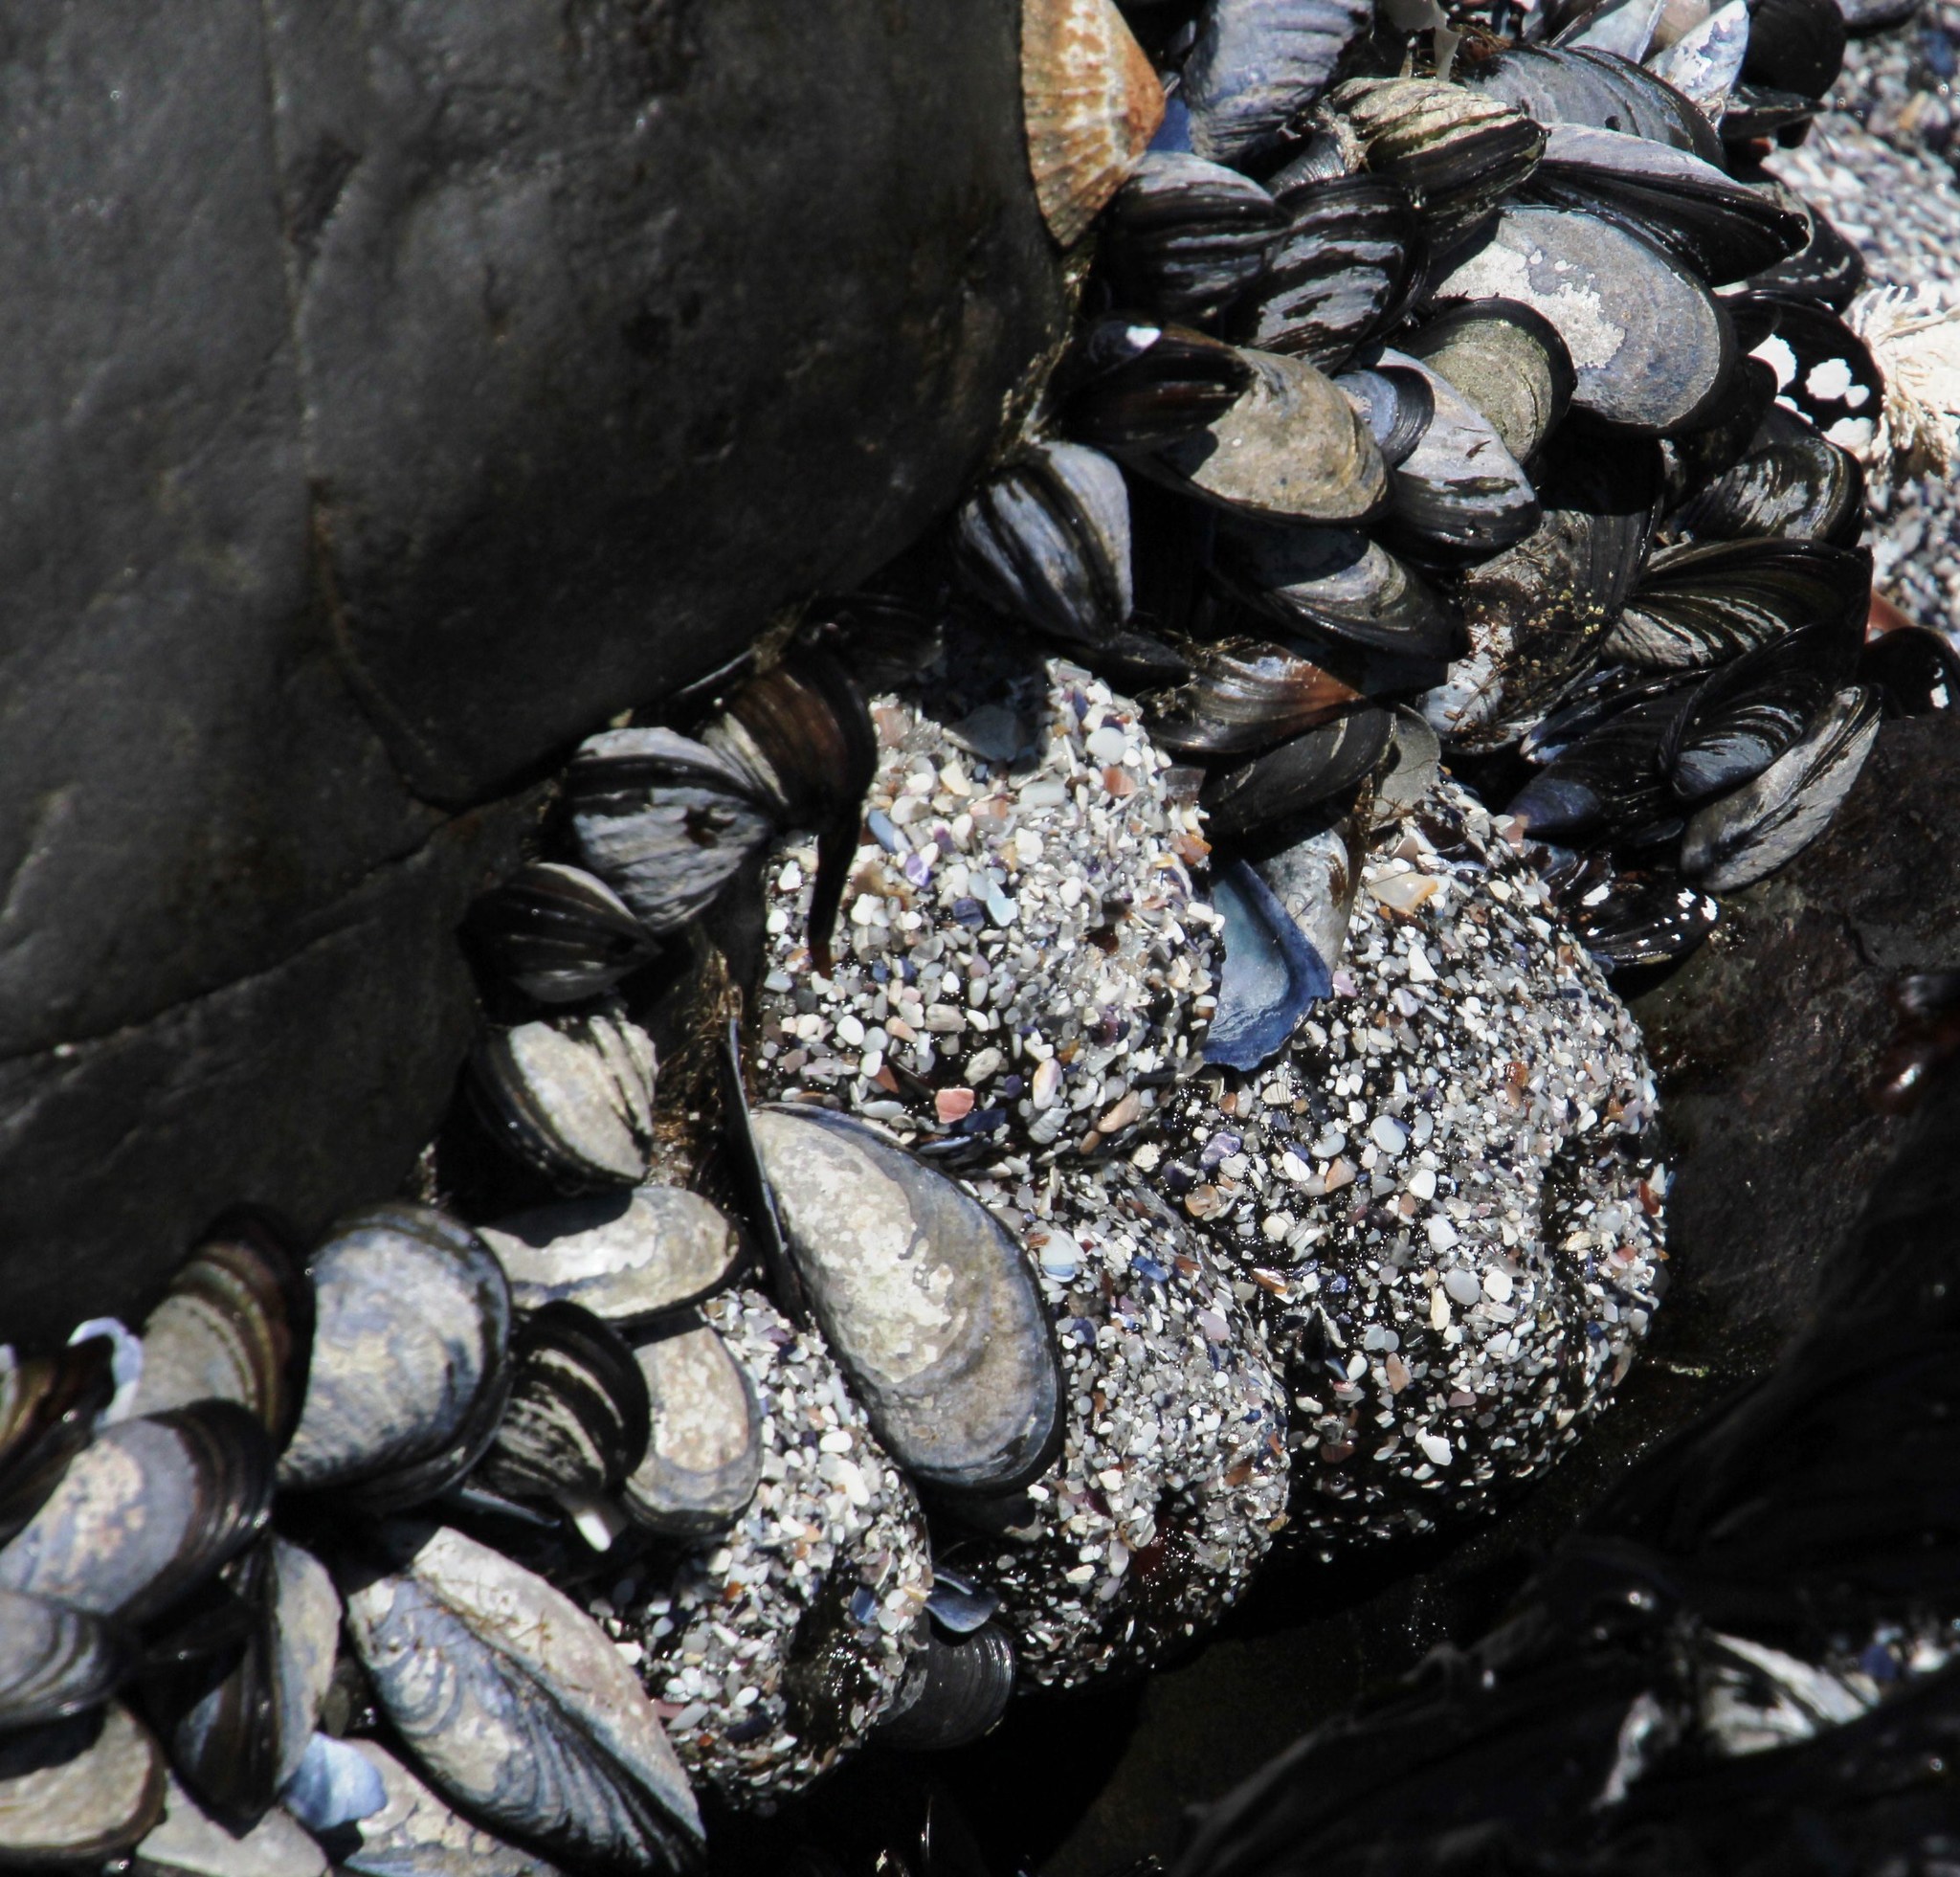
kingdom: Animalia
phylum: Cnidaria
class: Anthozoa
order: Actiniaria
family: Actiniidae
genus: Bunodactis
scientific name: Bunodactis reynaudi
